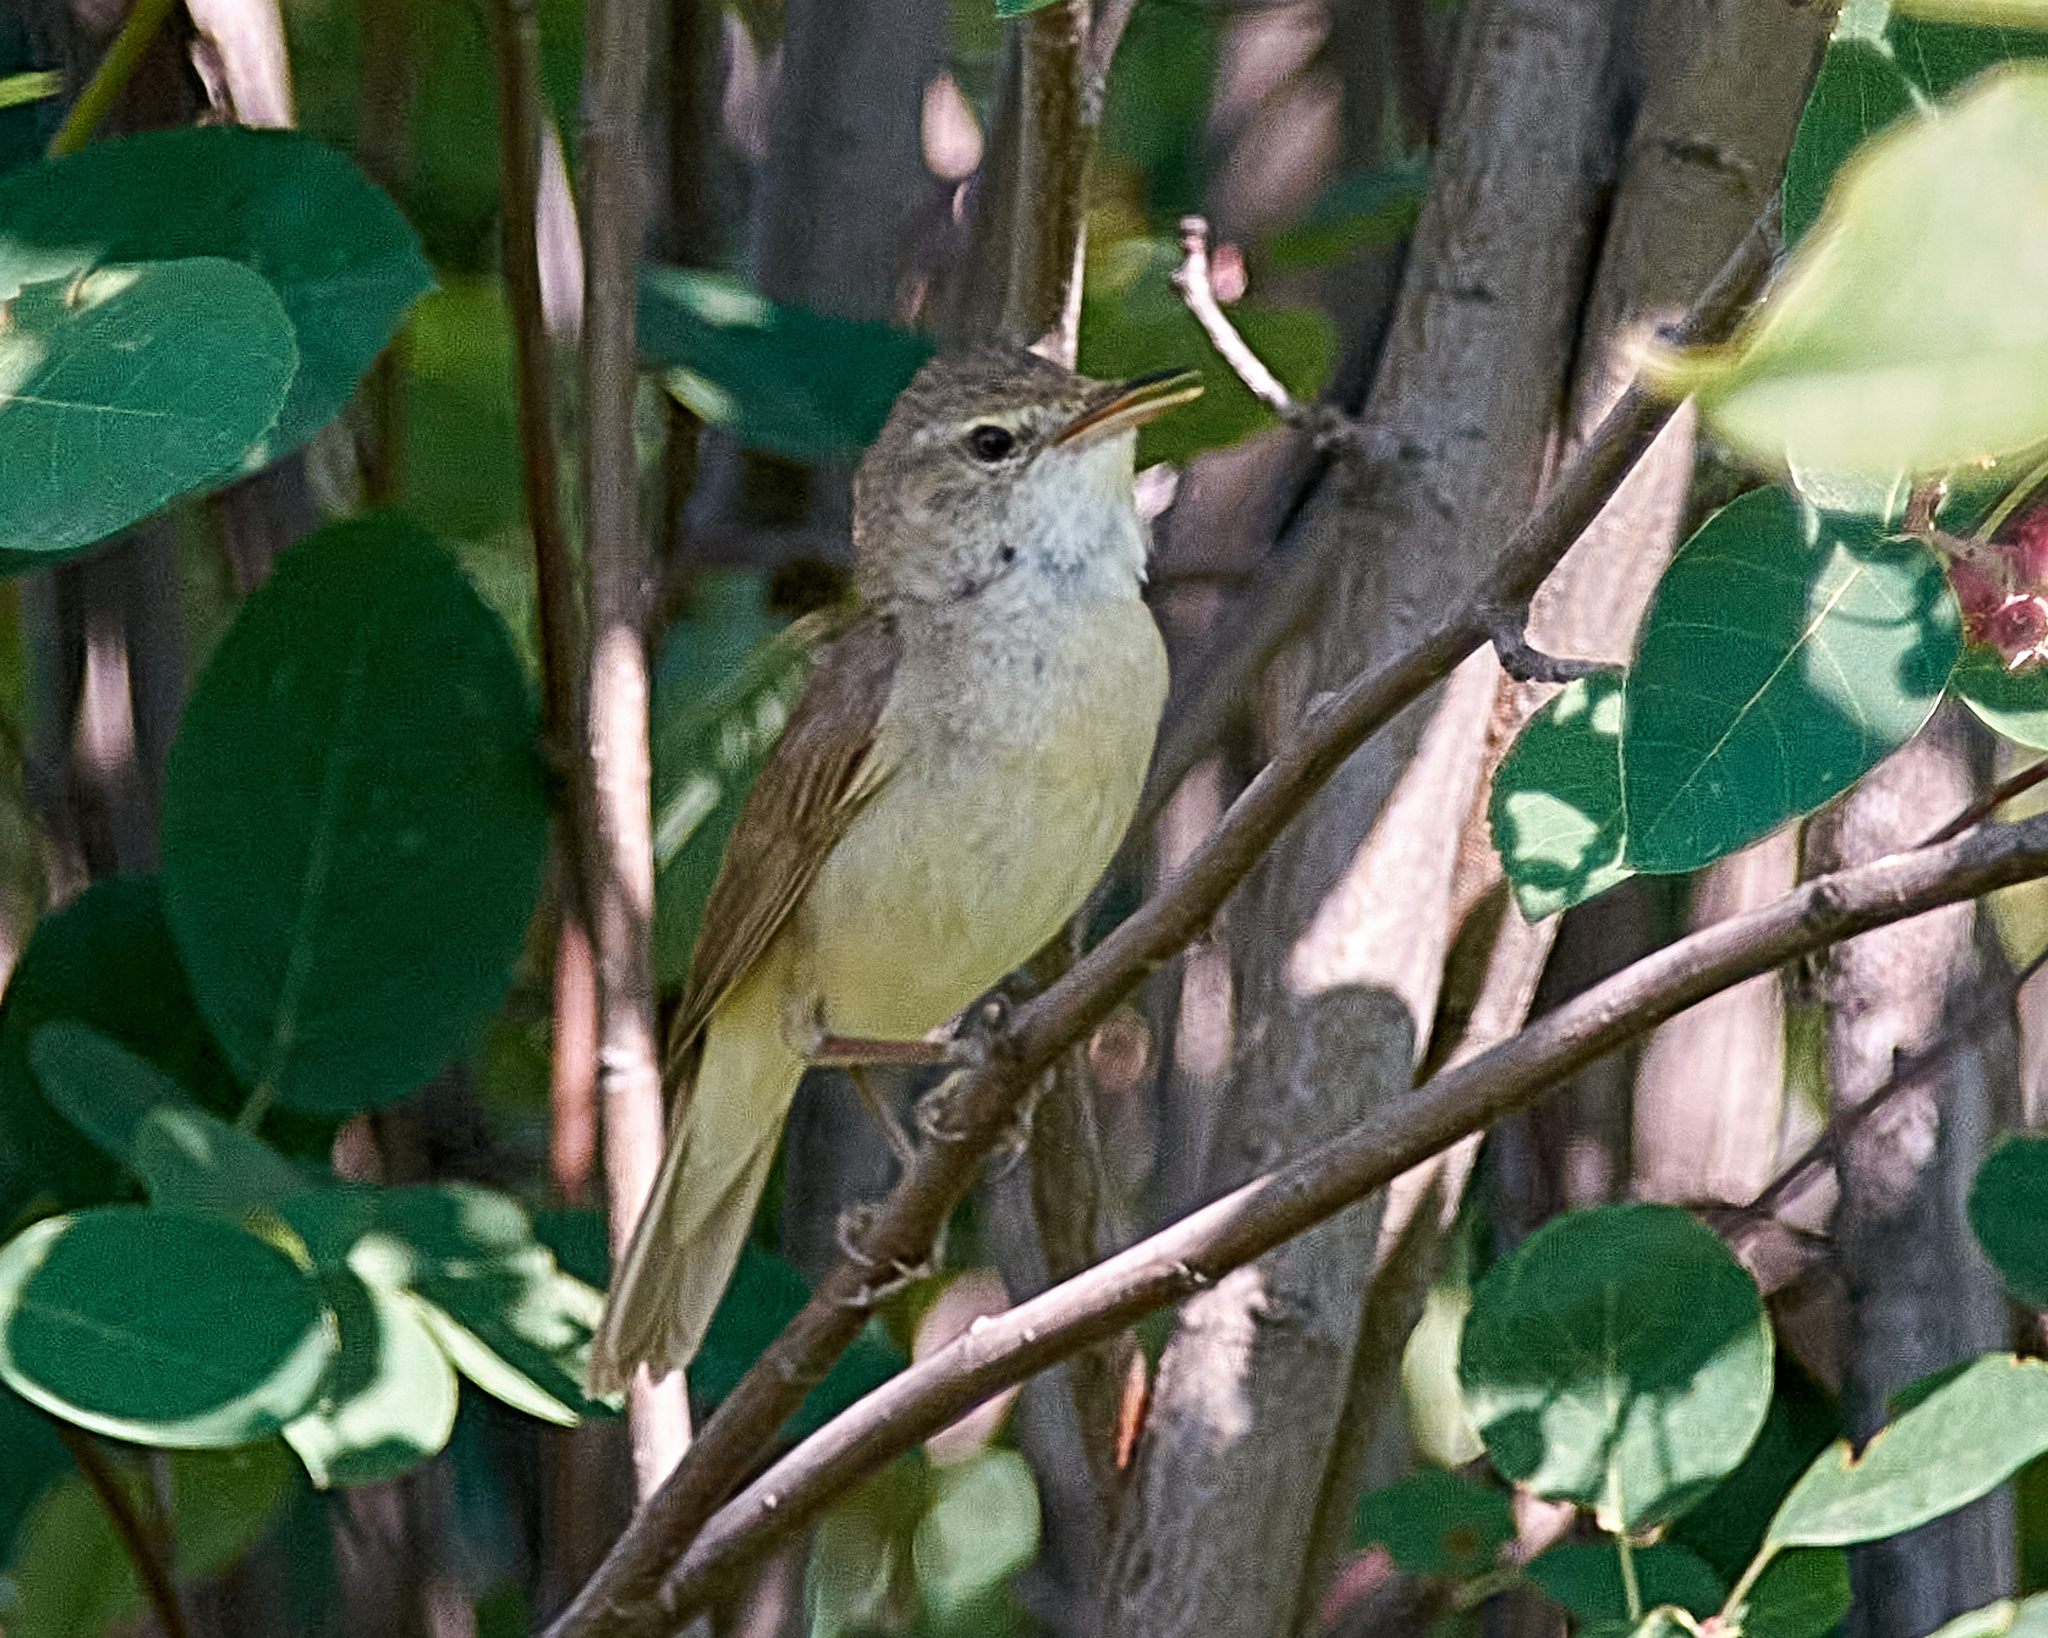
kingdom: Animalia
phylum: Chordata
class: Aves
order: Passeriformes
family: Acrocephalidae
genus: Acrocephalus
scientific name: Acrocephalus dumetorum
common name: Blyth's reed warbler
